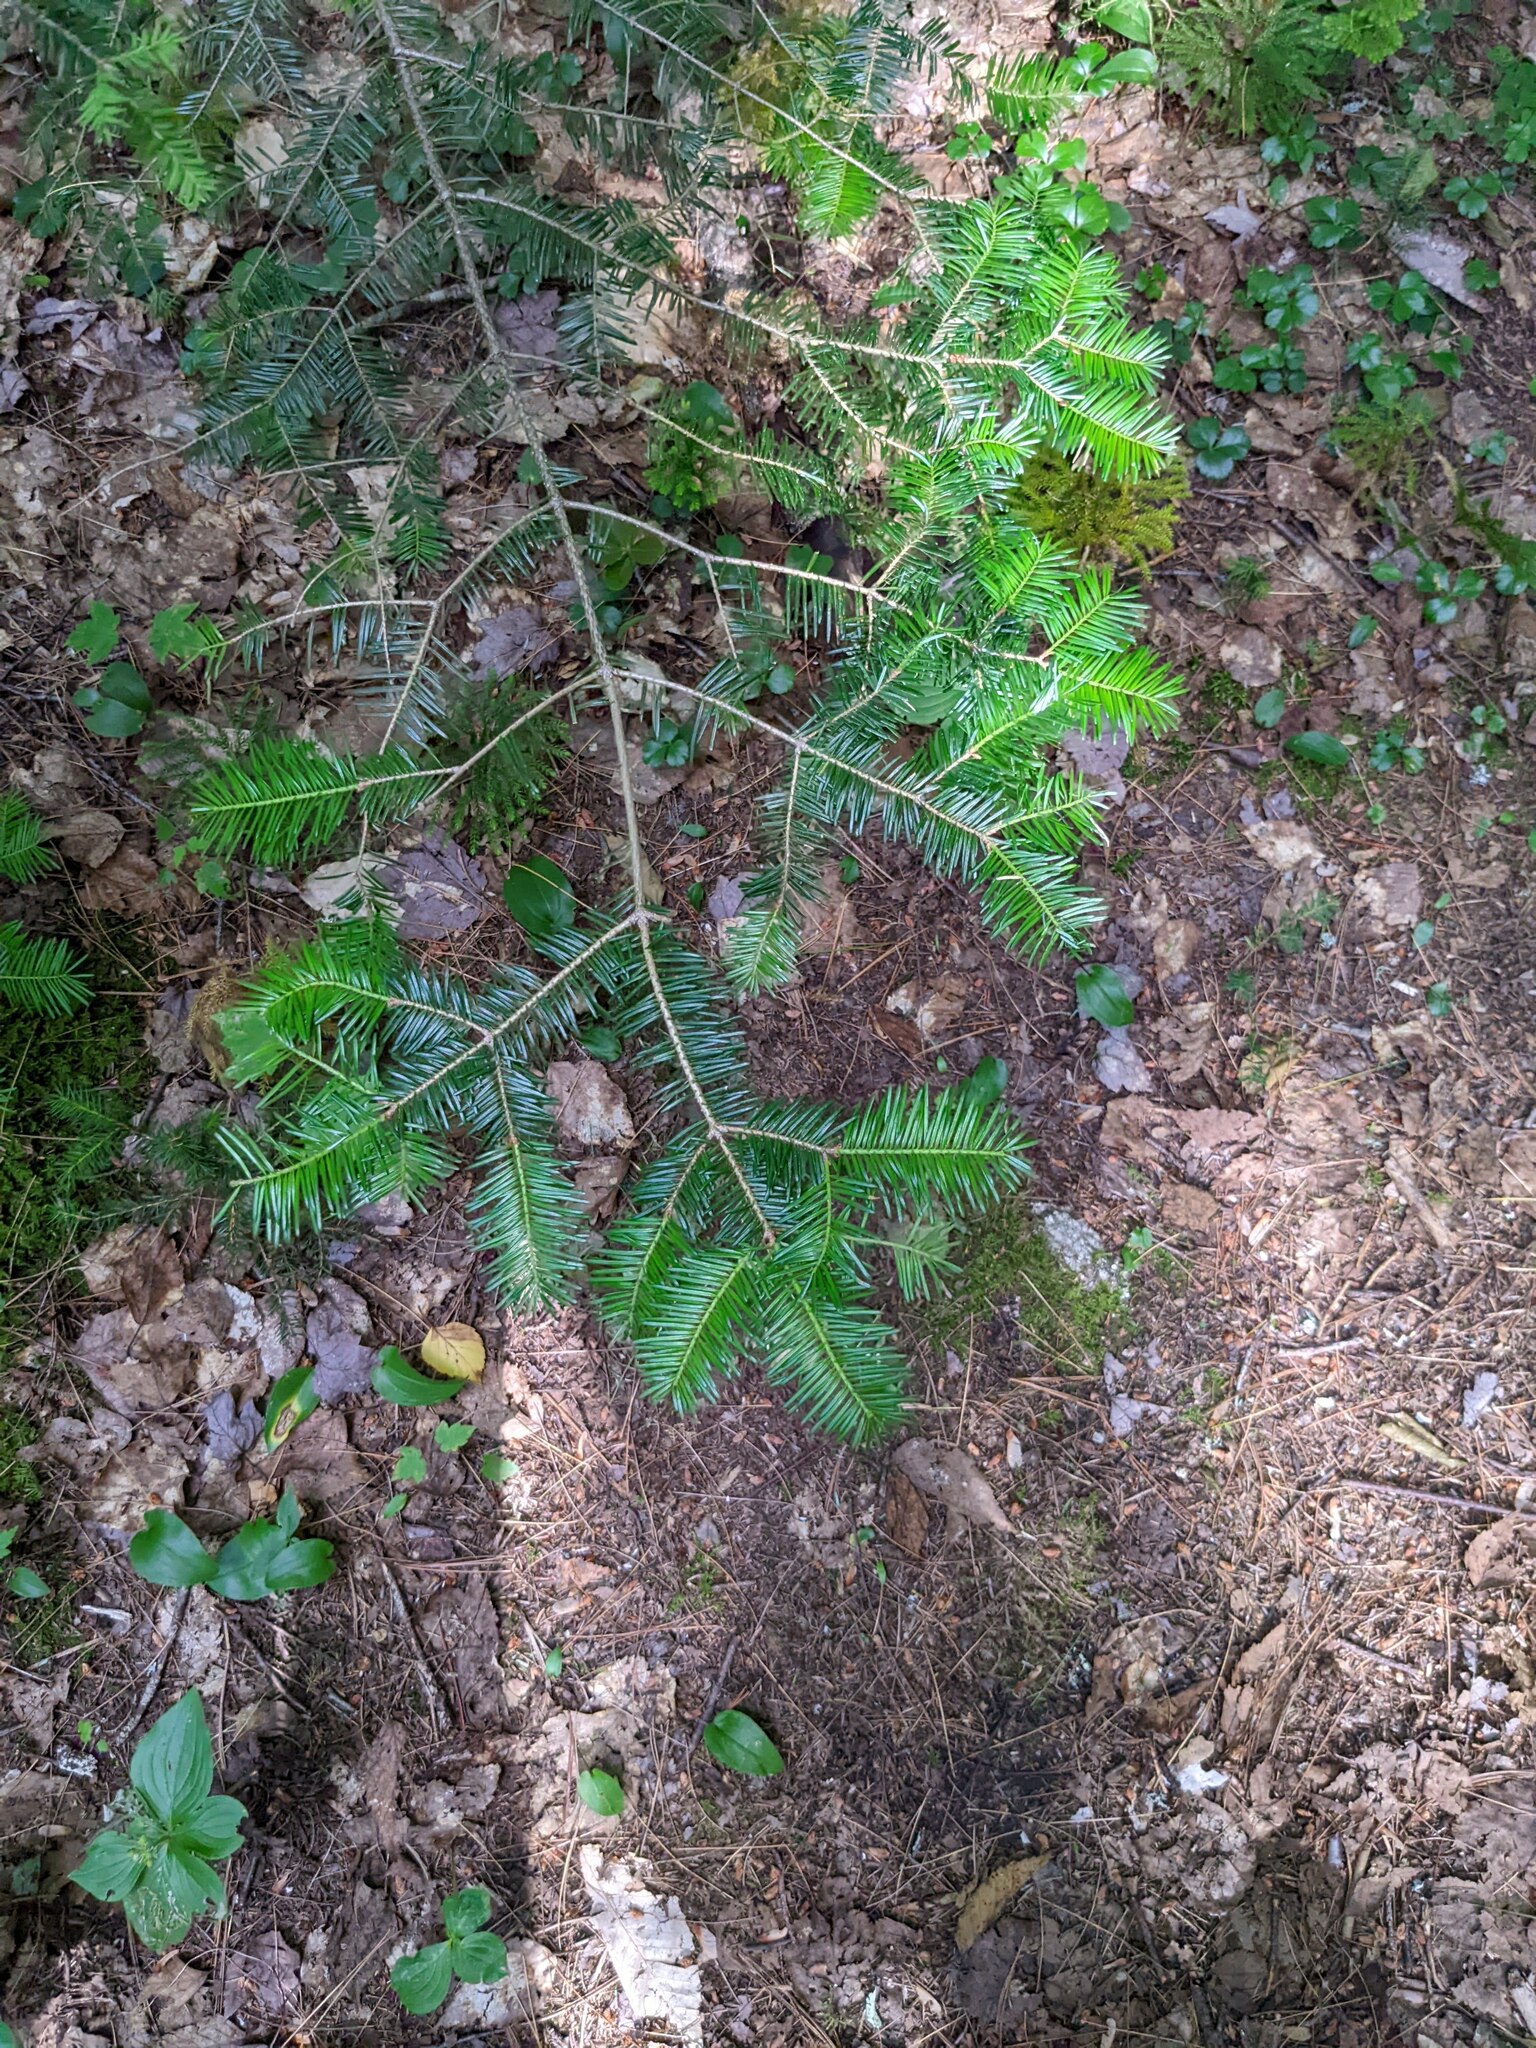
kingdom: Plantae
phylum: Tracheophyta
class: Pinopsida
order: Pinales
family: Pinaceae
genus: Abies
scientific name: Abies balsamea
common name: Balsam fir
